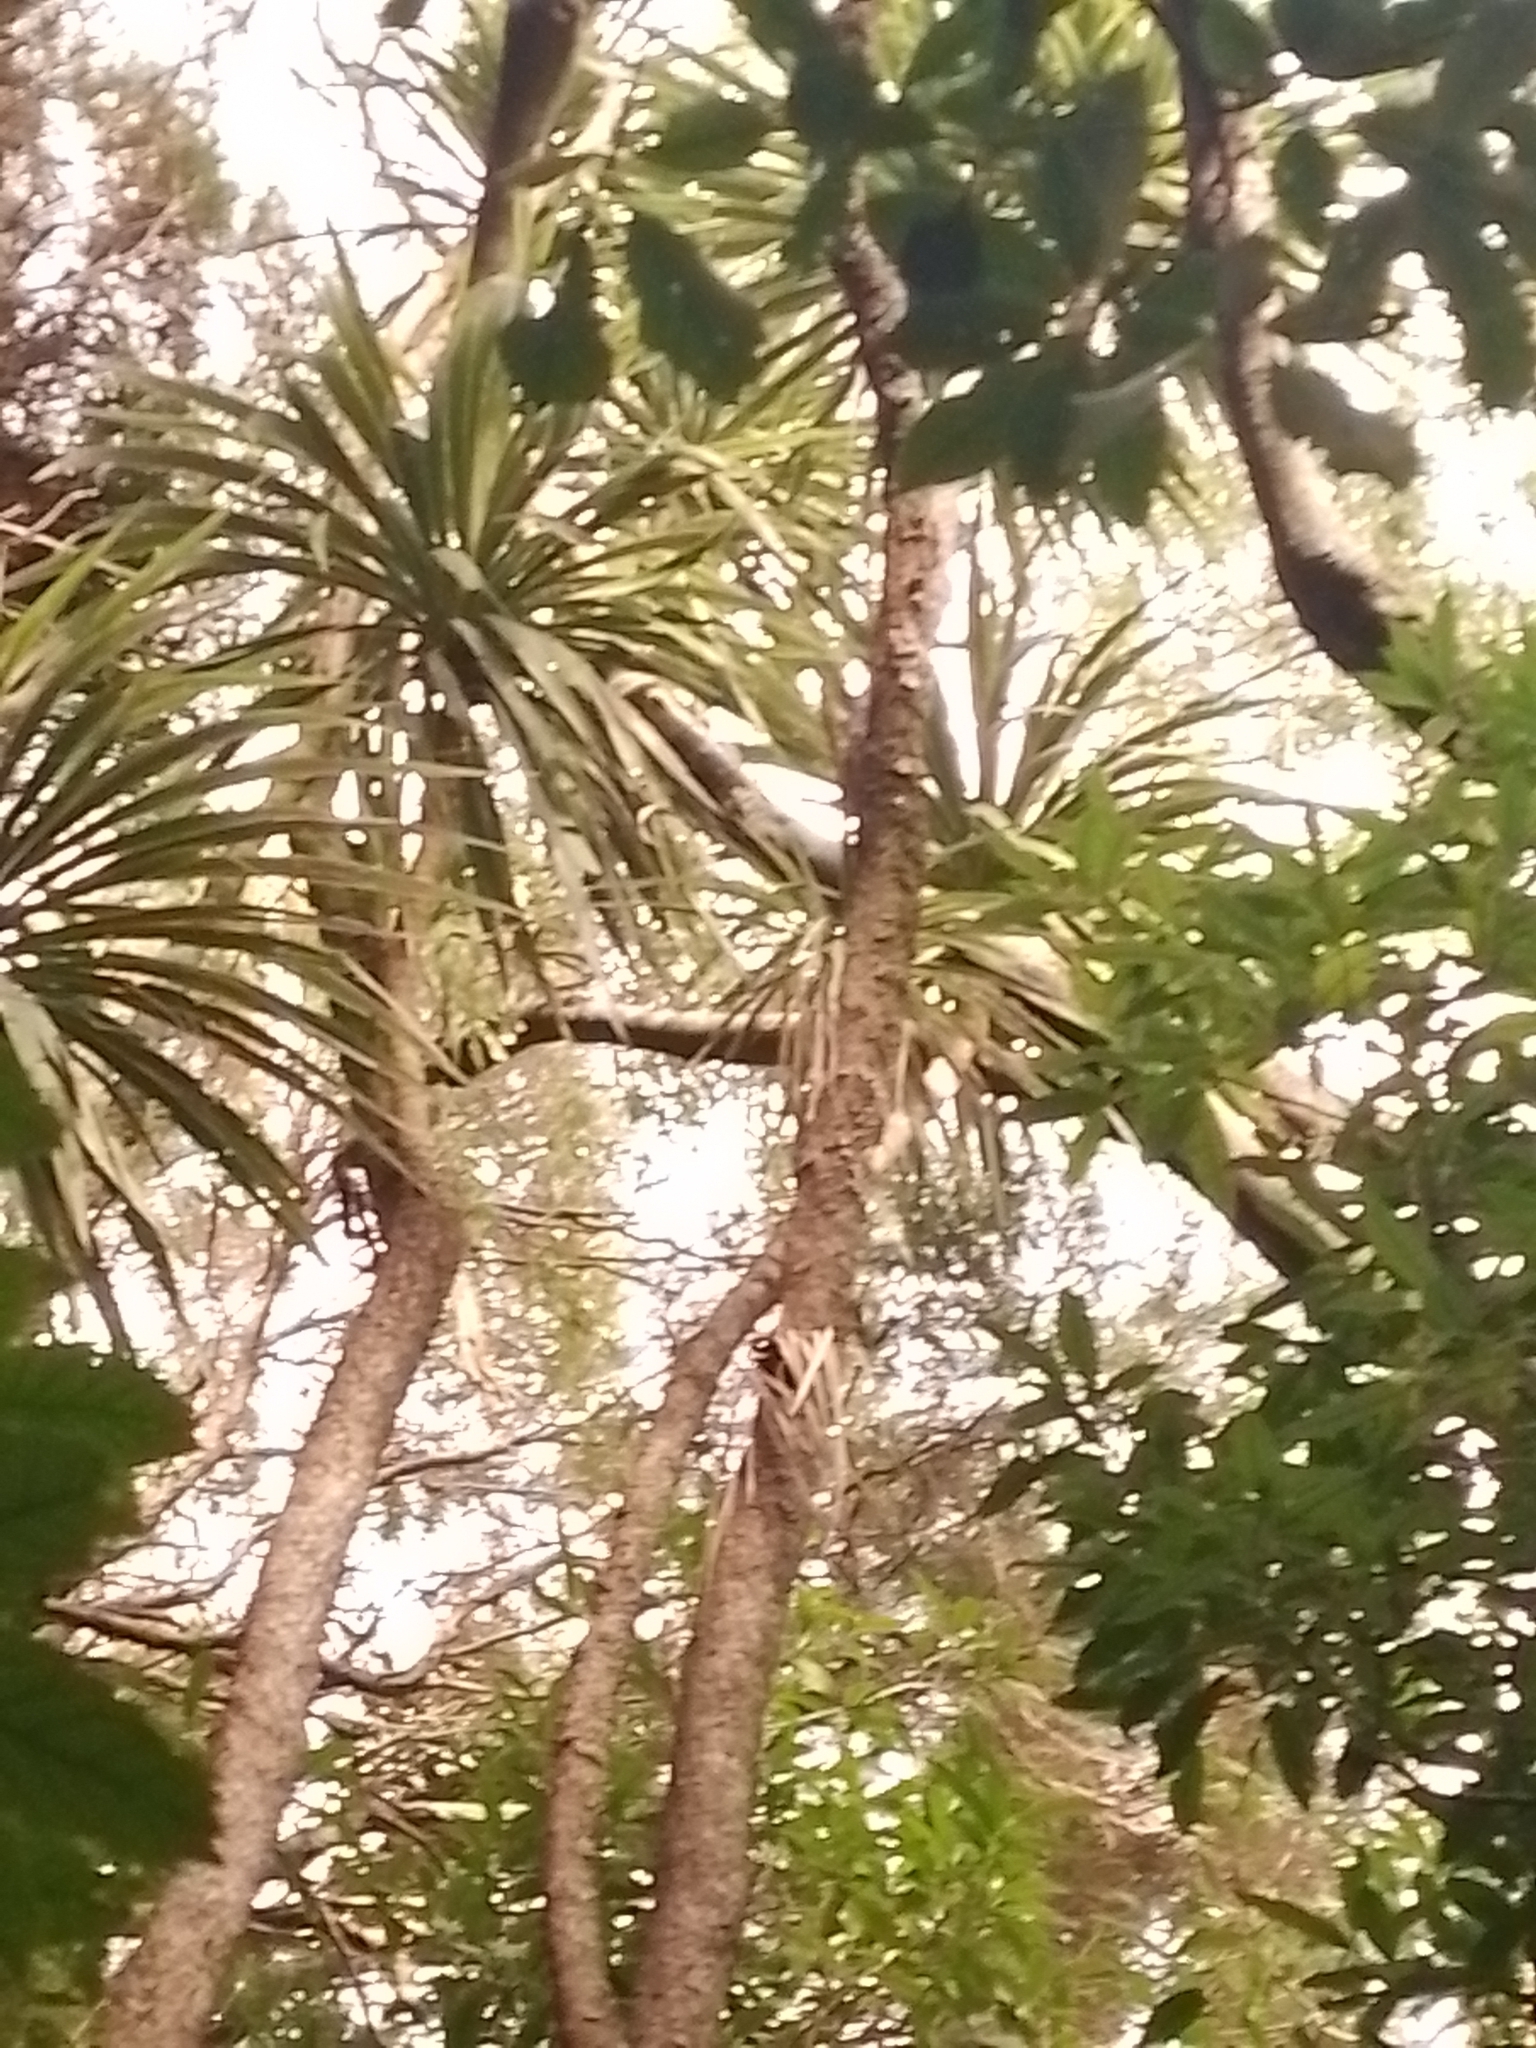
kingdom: Plantae
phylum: Tracheophyta
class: Liliopsida
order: Asparagales
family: Asparagaceae
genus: Cordyline
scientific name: Cordyline australis
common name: Cabbage-palm
